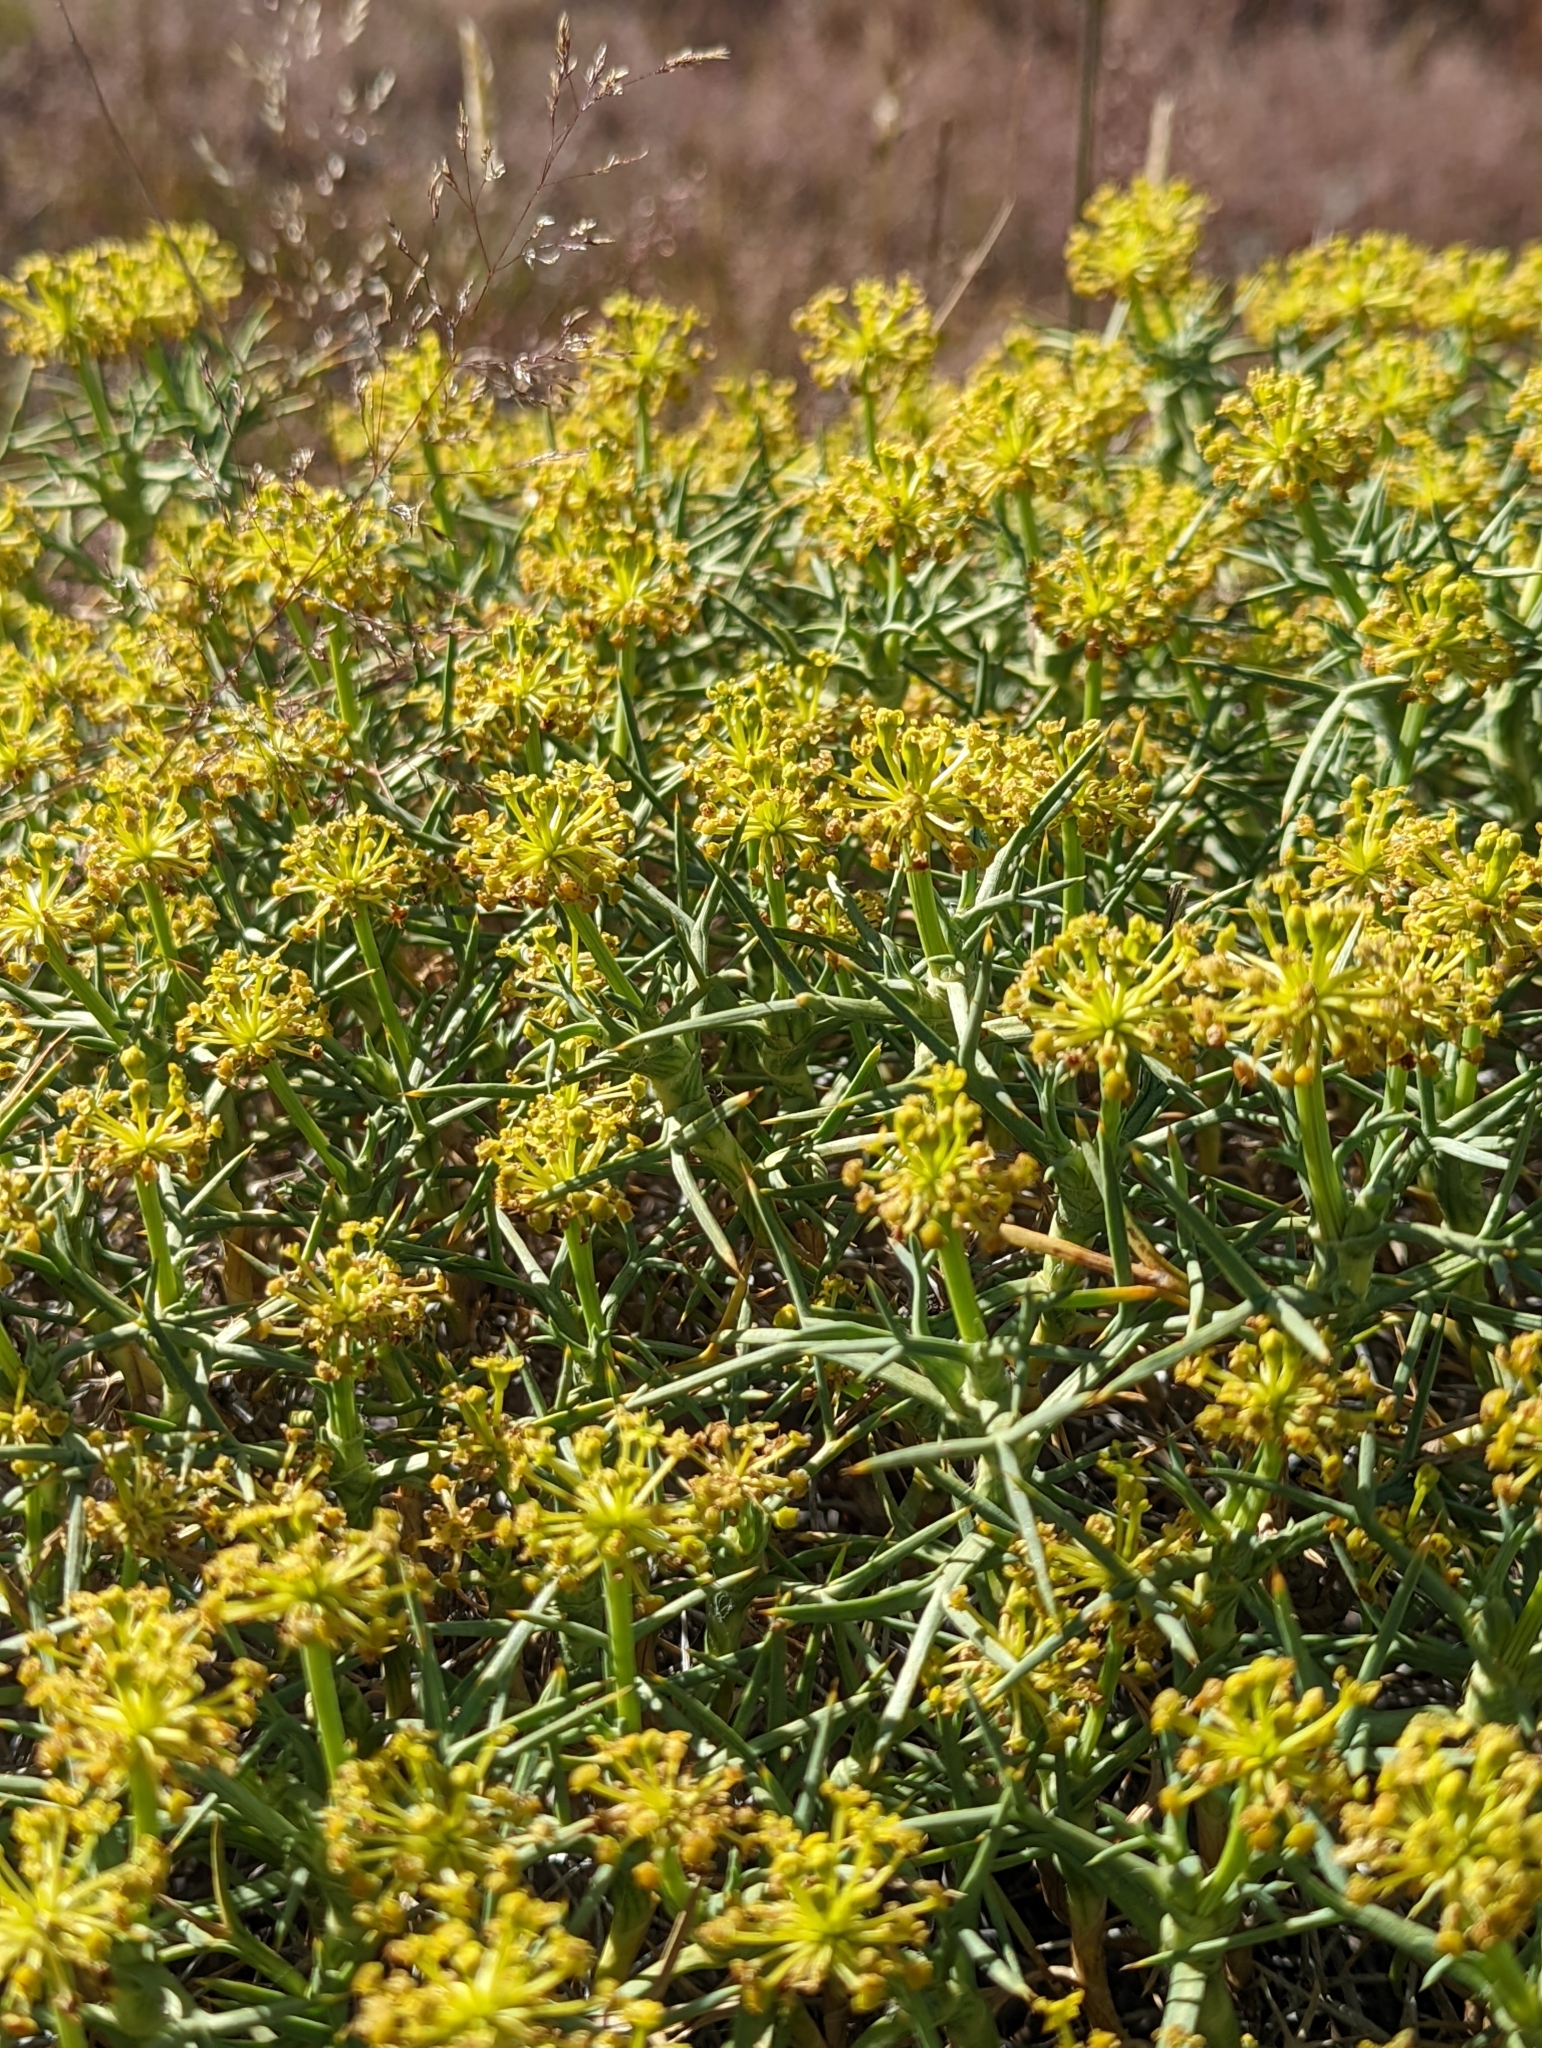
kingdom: Plantae
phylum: Tracheophyta
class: Magnoliopsida
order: Apiales
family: Apiaceae
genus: Azorella
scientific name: Azorella prolifera
